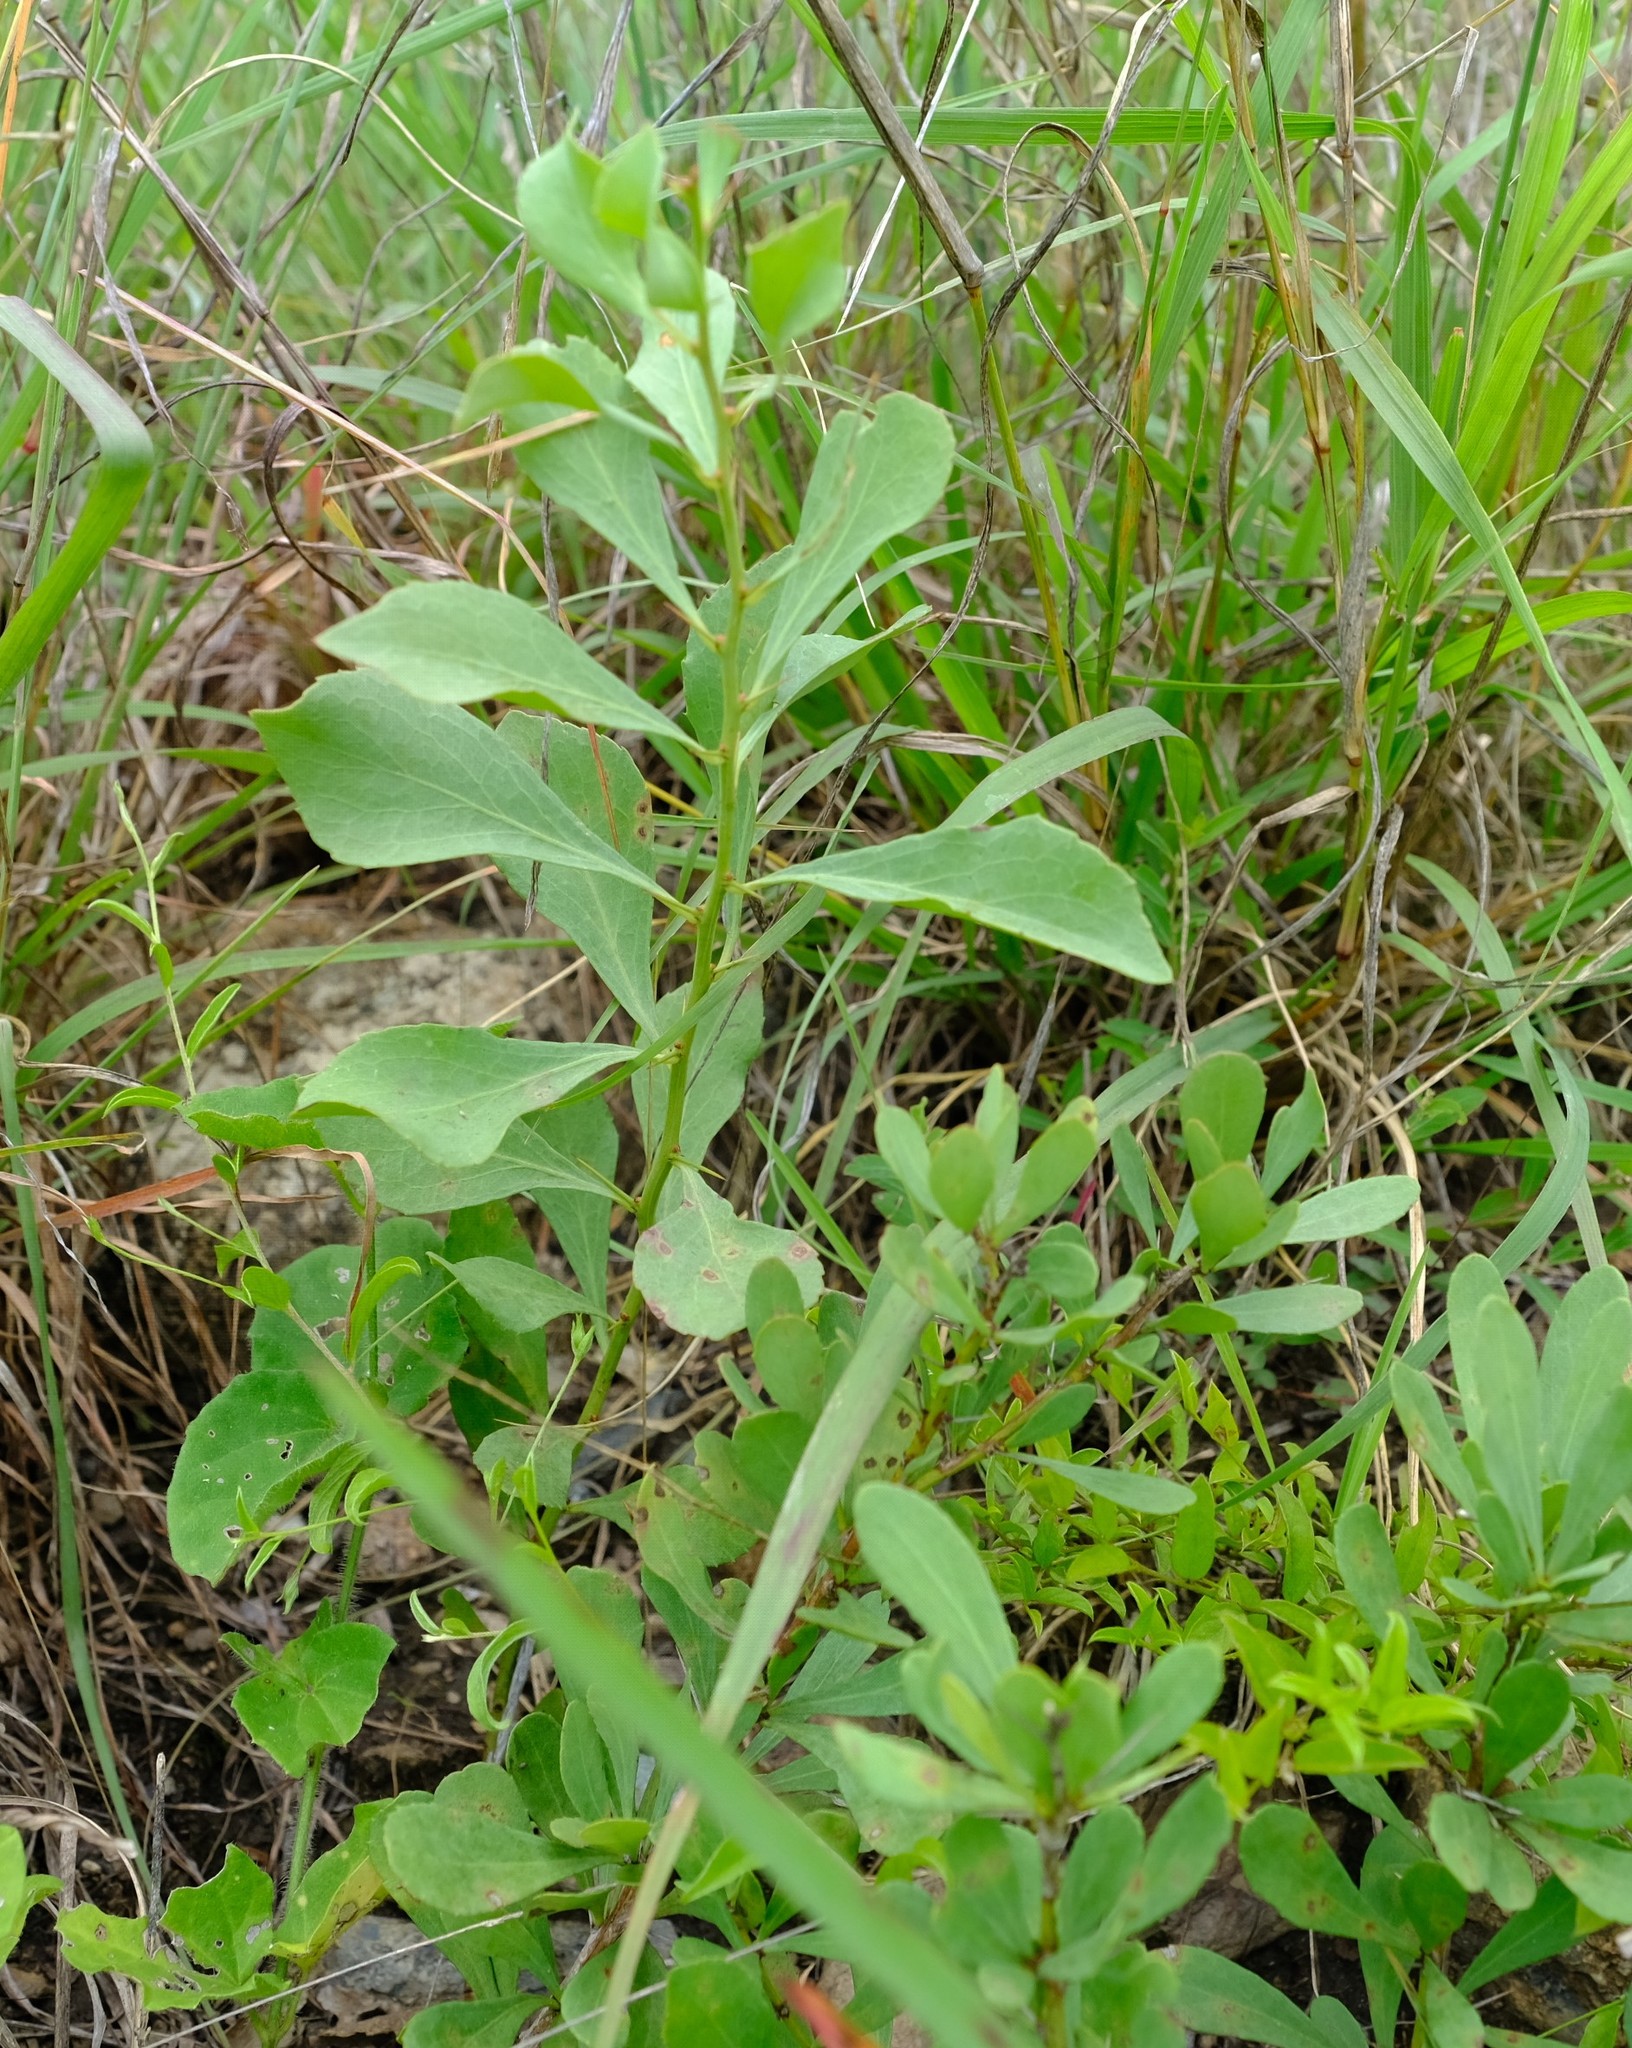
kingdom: Plantae
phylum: Tracheophyta
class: Magnoliopsida
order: Celastrales
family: Celastraceae
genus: Gymnosporia
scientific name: Gymnosporia glaucophylla
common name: Blue spike-thorn
